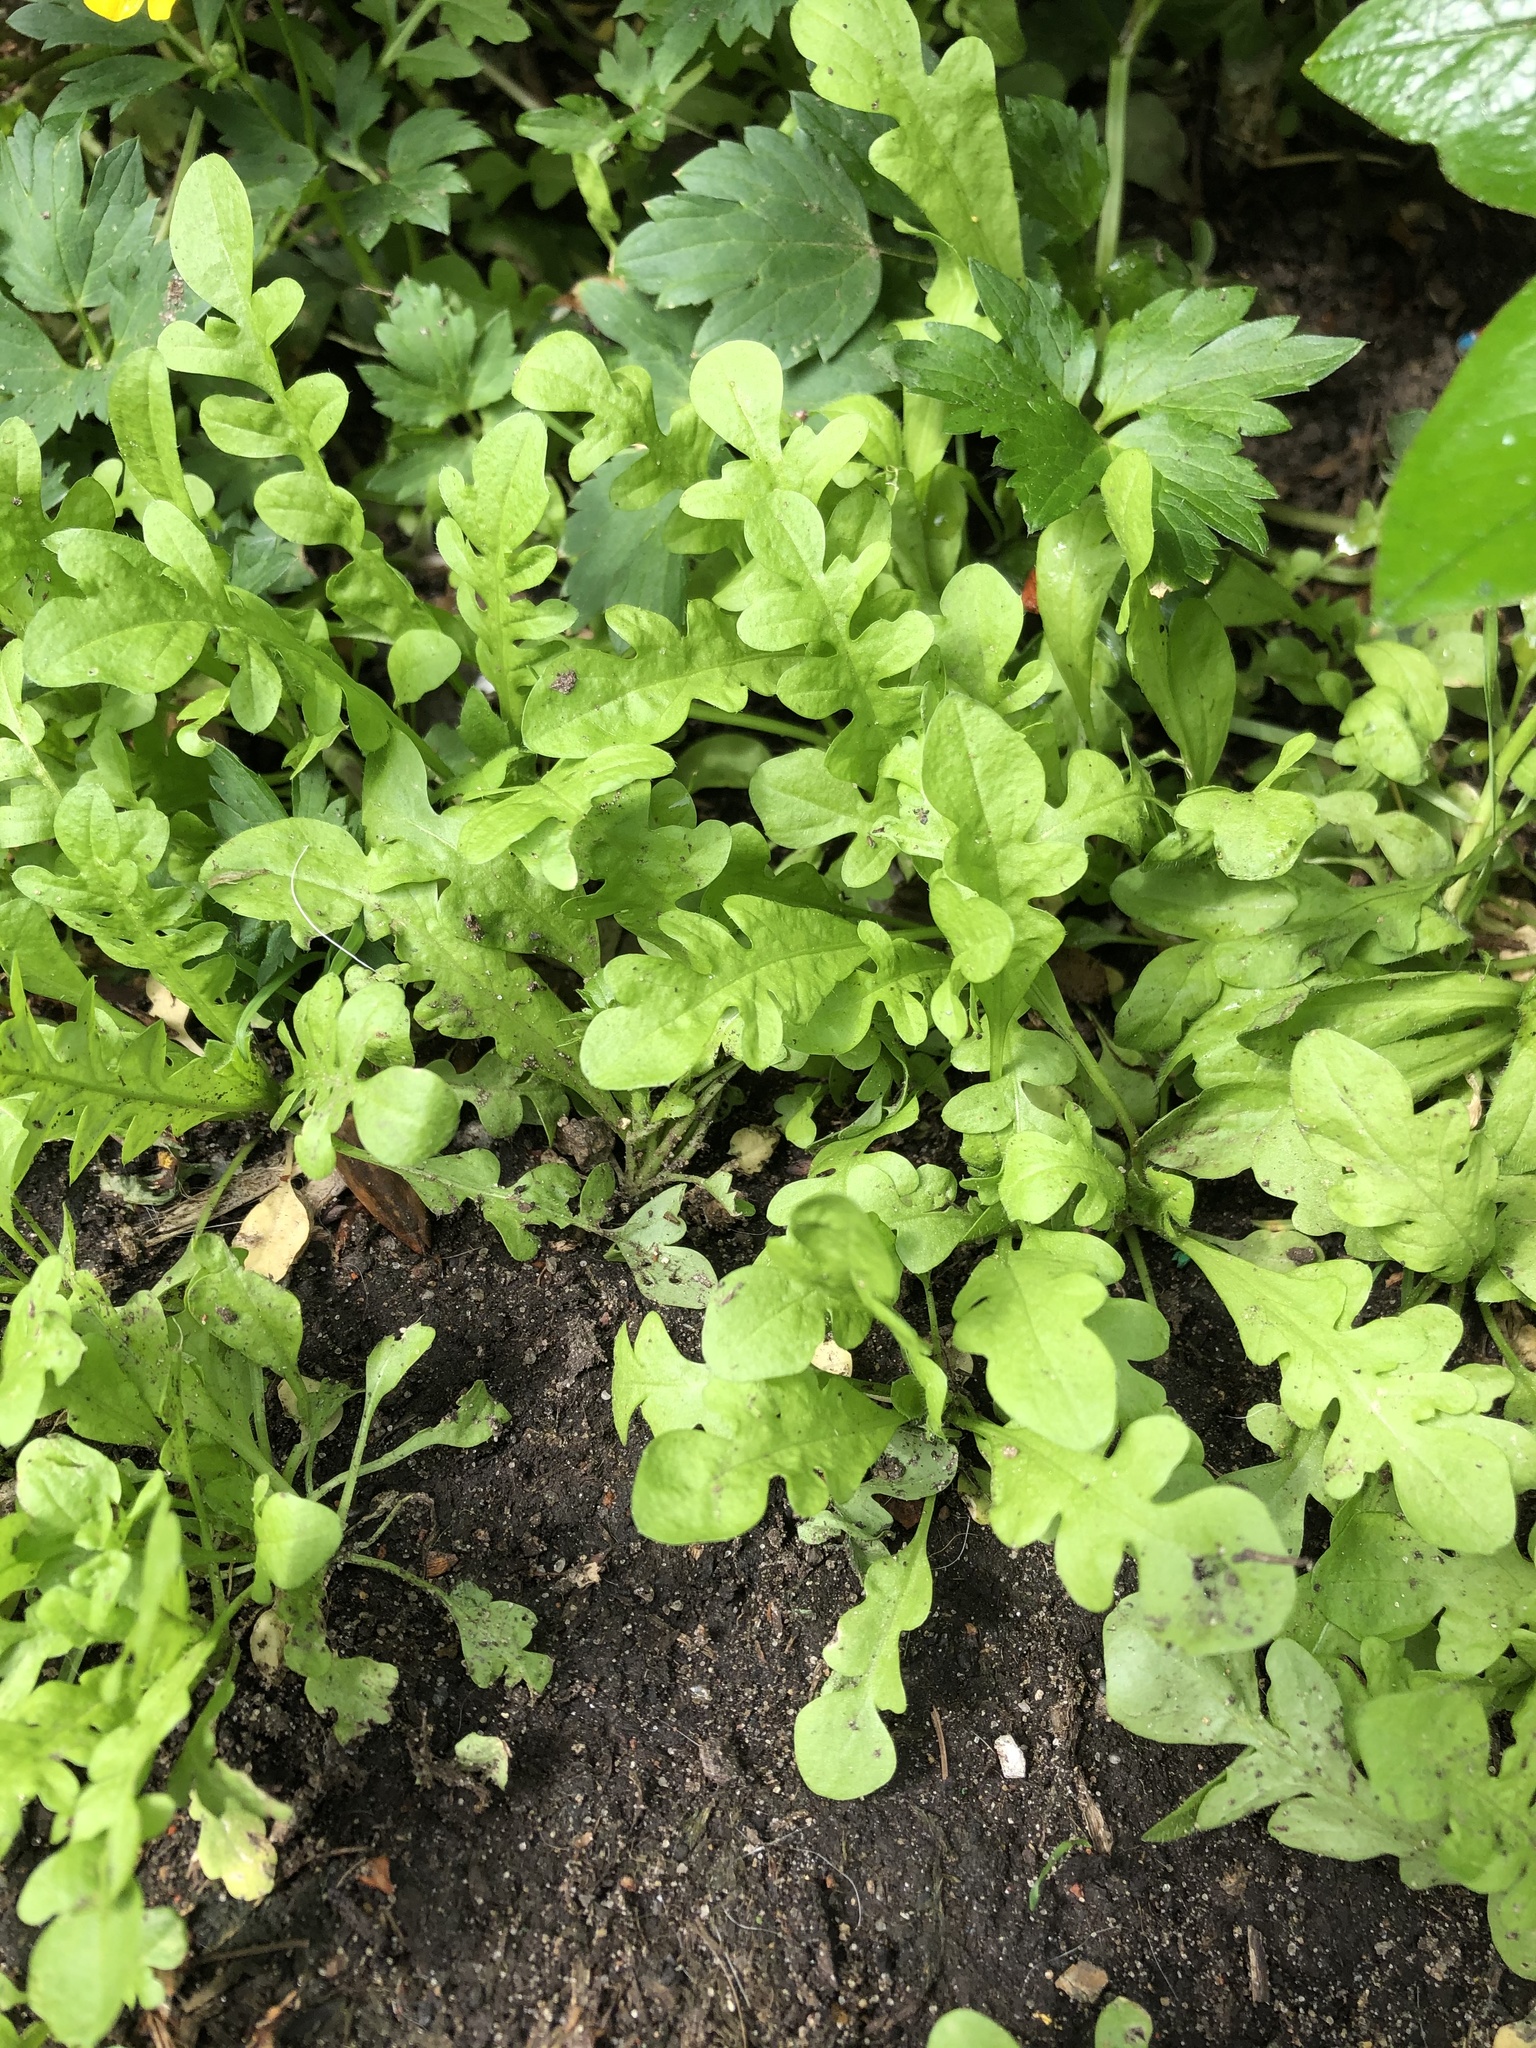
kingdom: Plantae
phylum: Tracheophyta
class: Magnoliopsida
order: Brassicales
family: Brassicaceae
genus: Capsella
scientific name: Capsella bursa-pastoris
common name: Shepherd's purse
